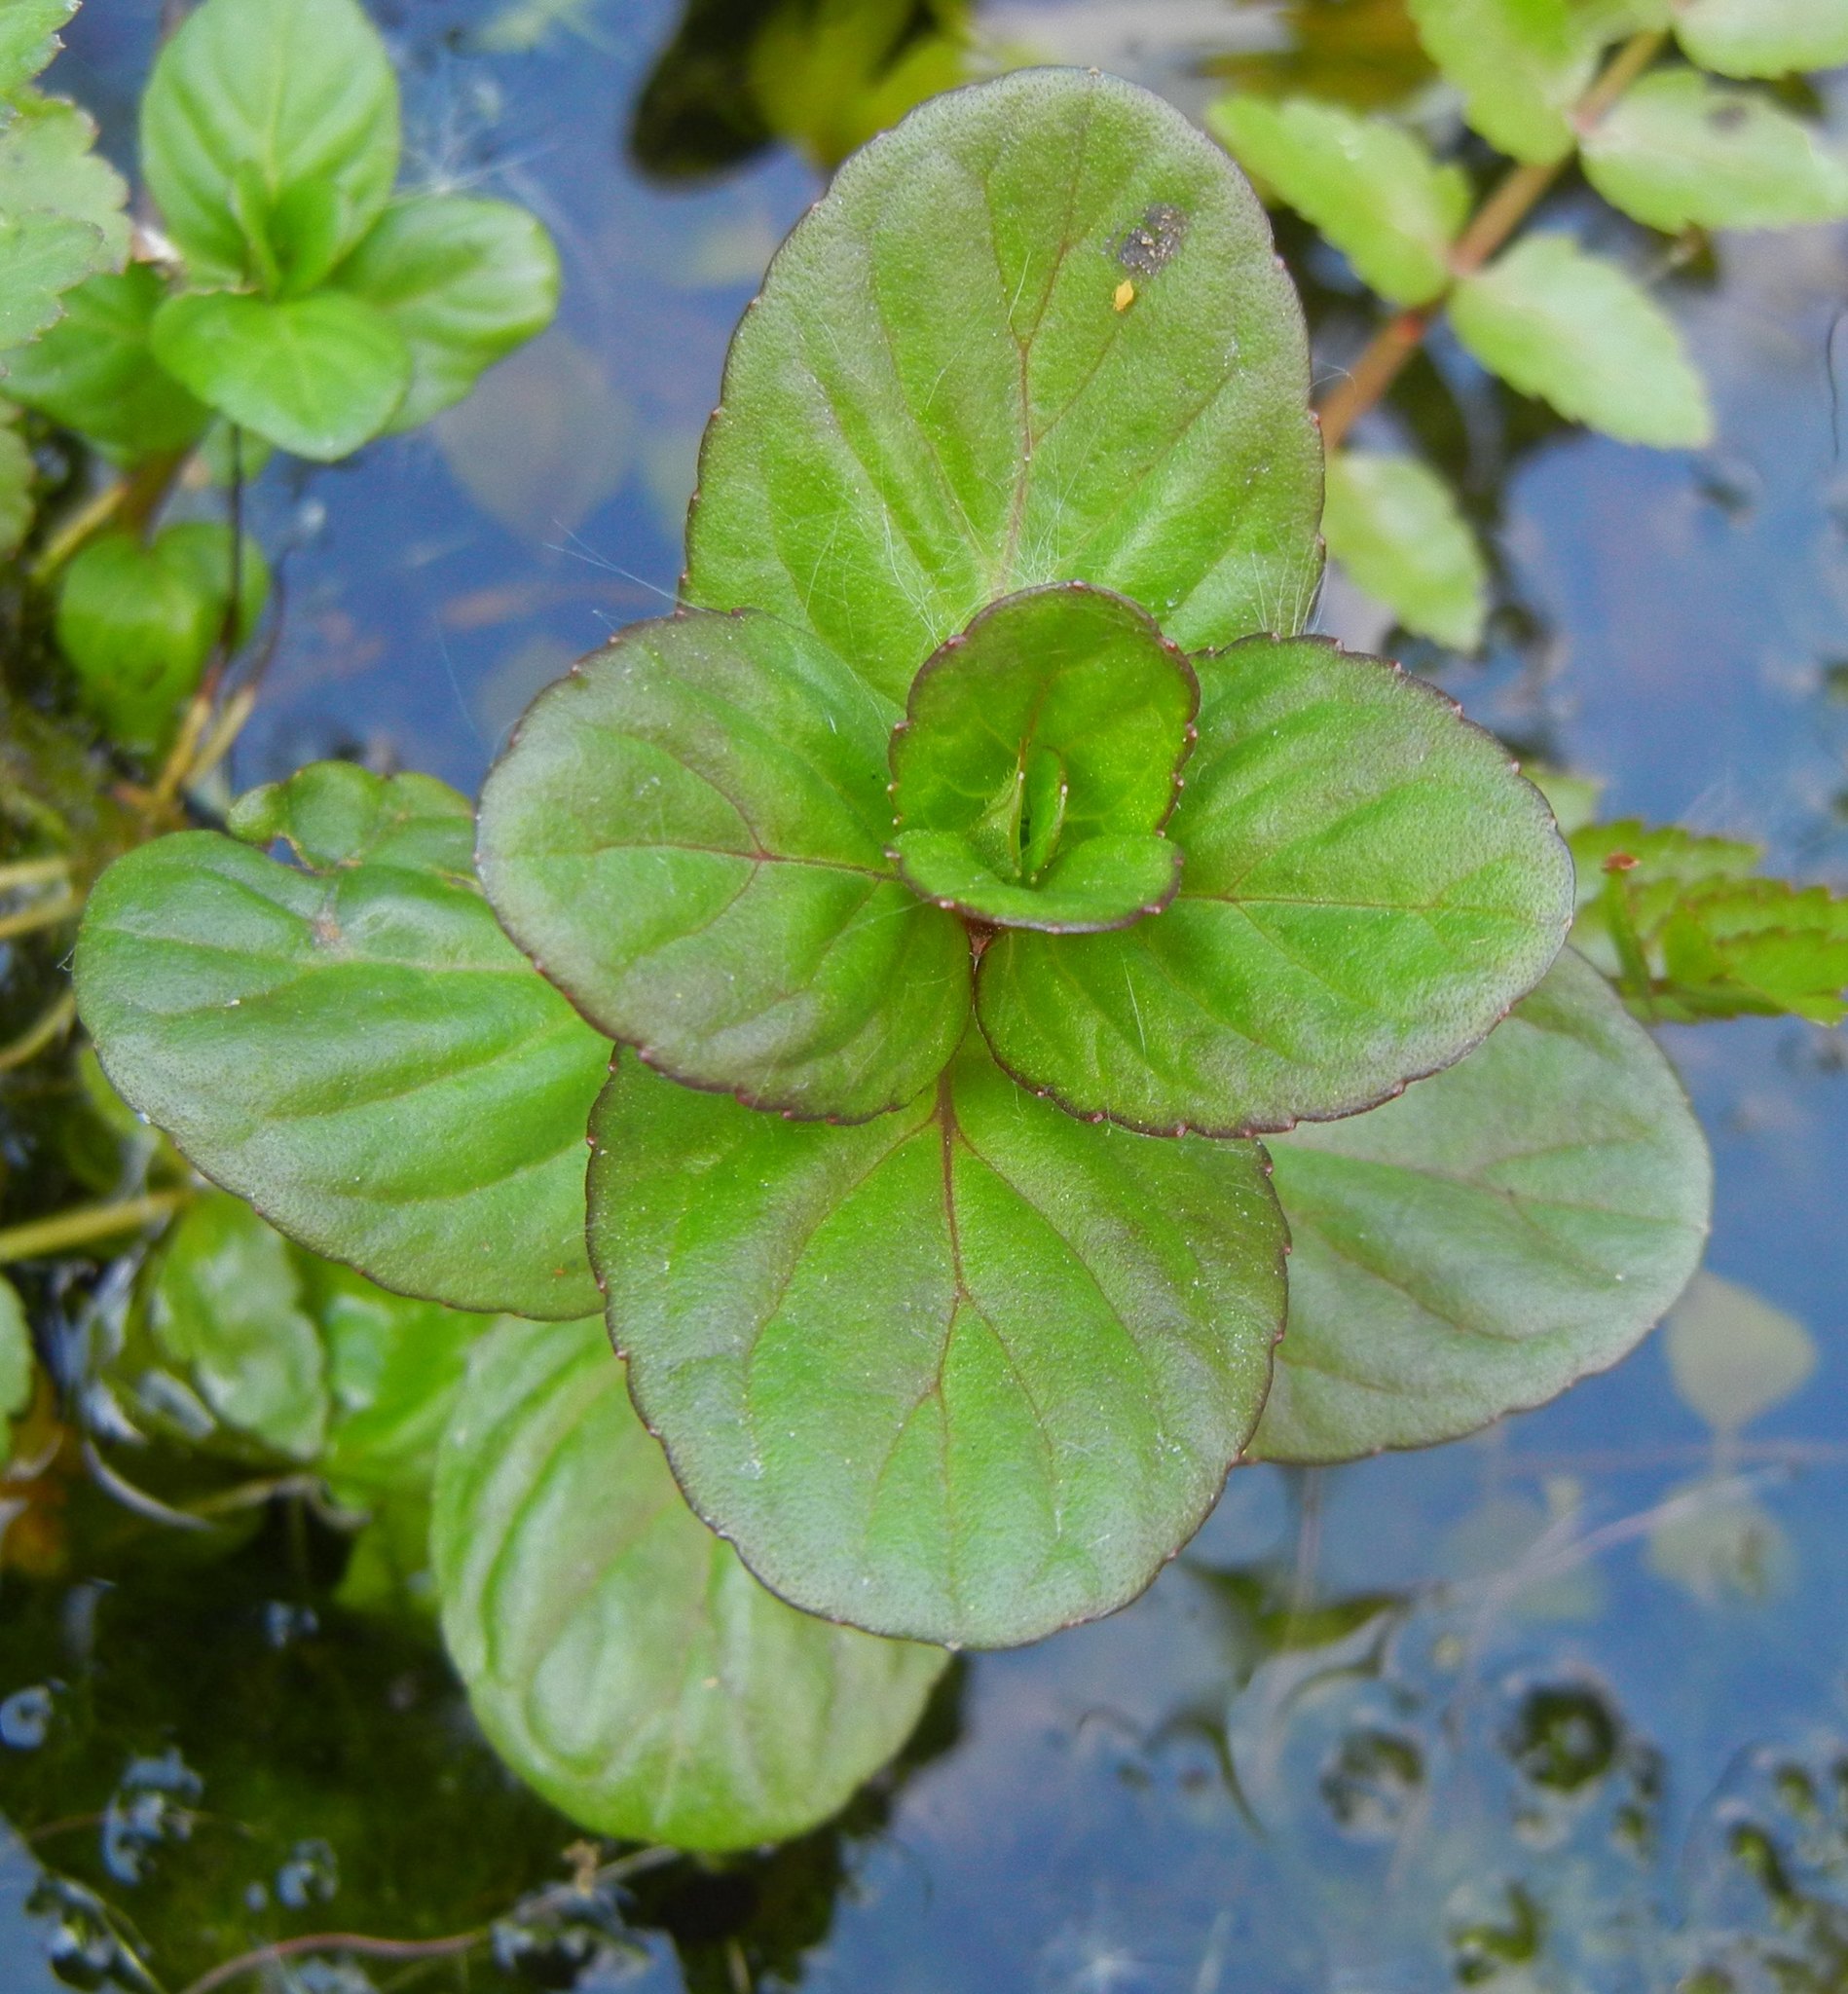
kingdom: Plantae
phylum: Tracheophyta
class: Magnoliopsida
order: Lamiales
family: Lamiaceae
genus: Mentha
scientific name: Mentha aquatica
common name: Water mint
